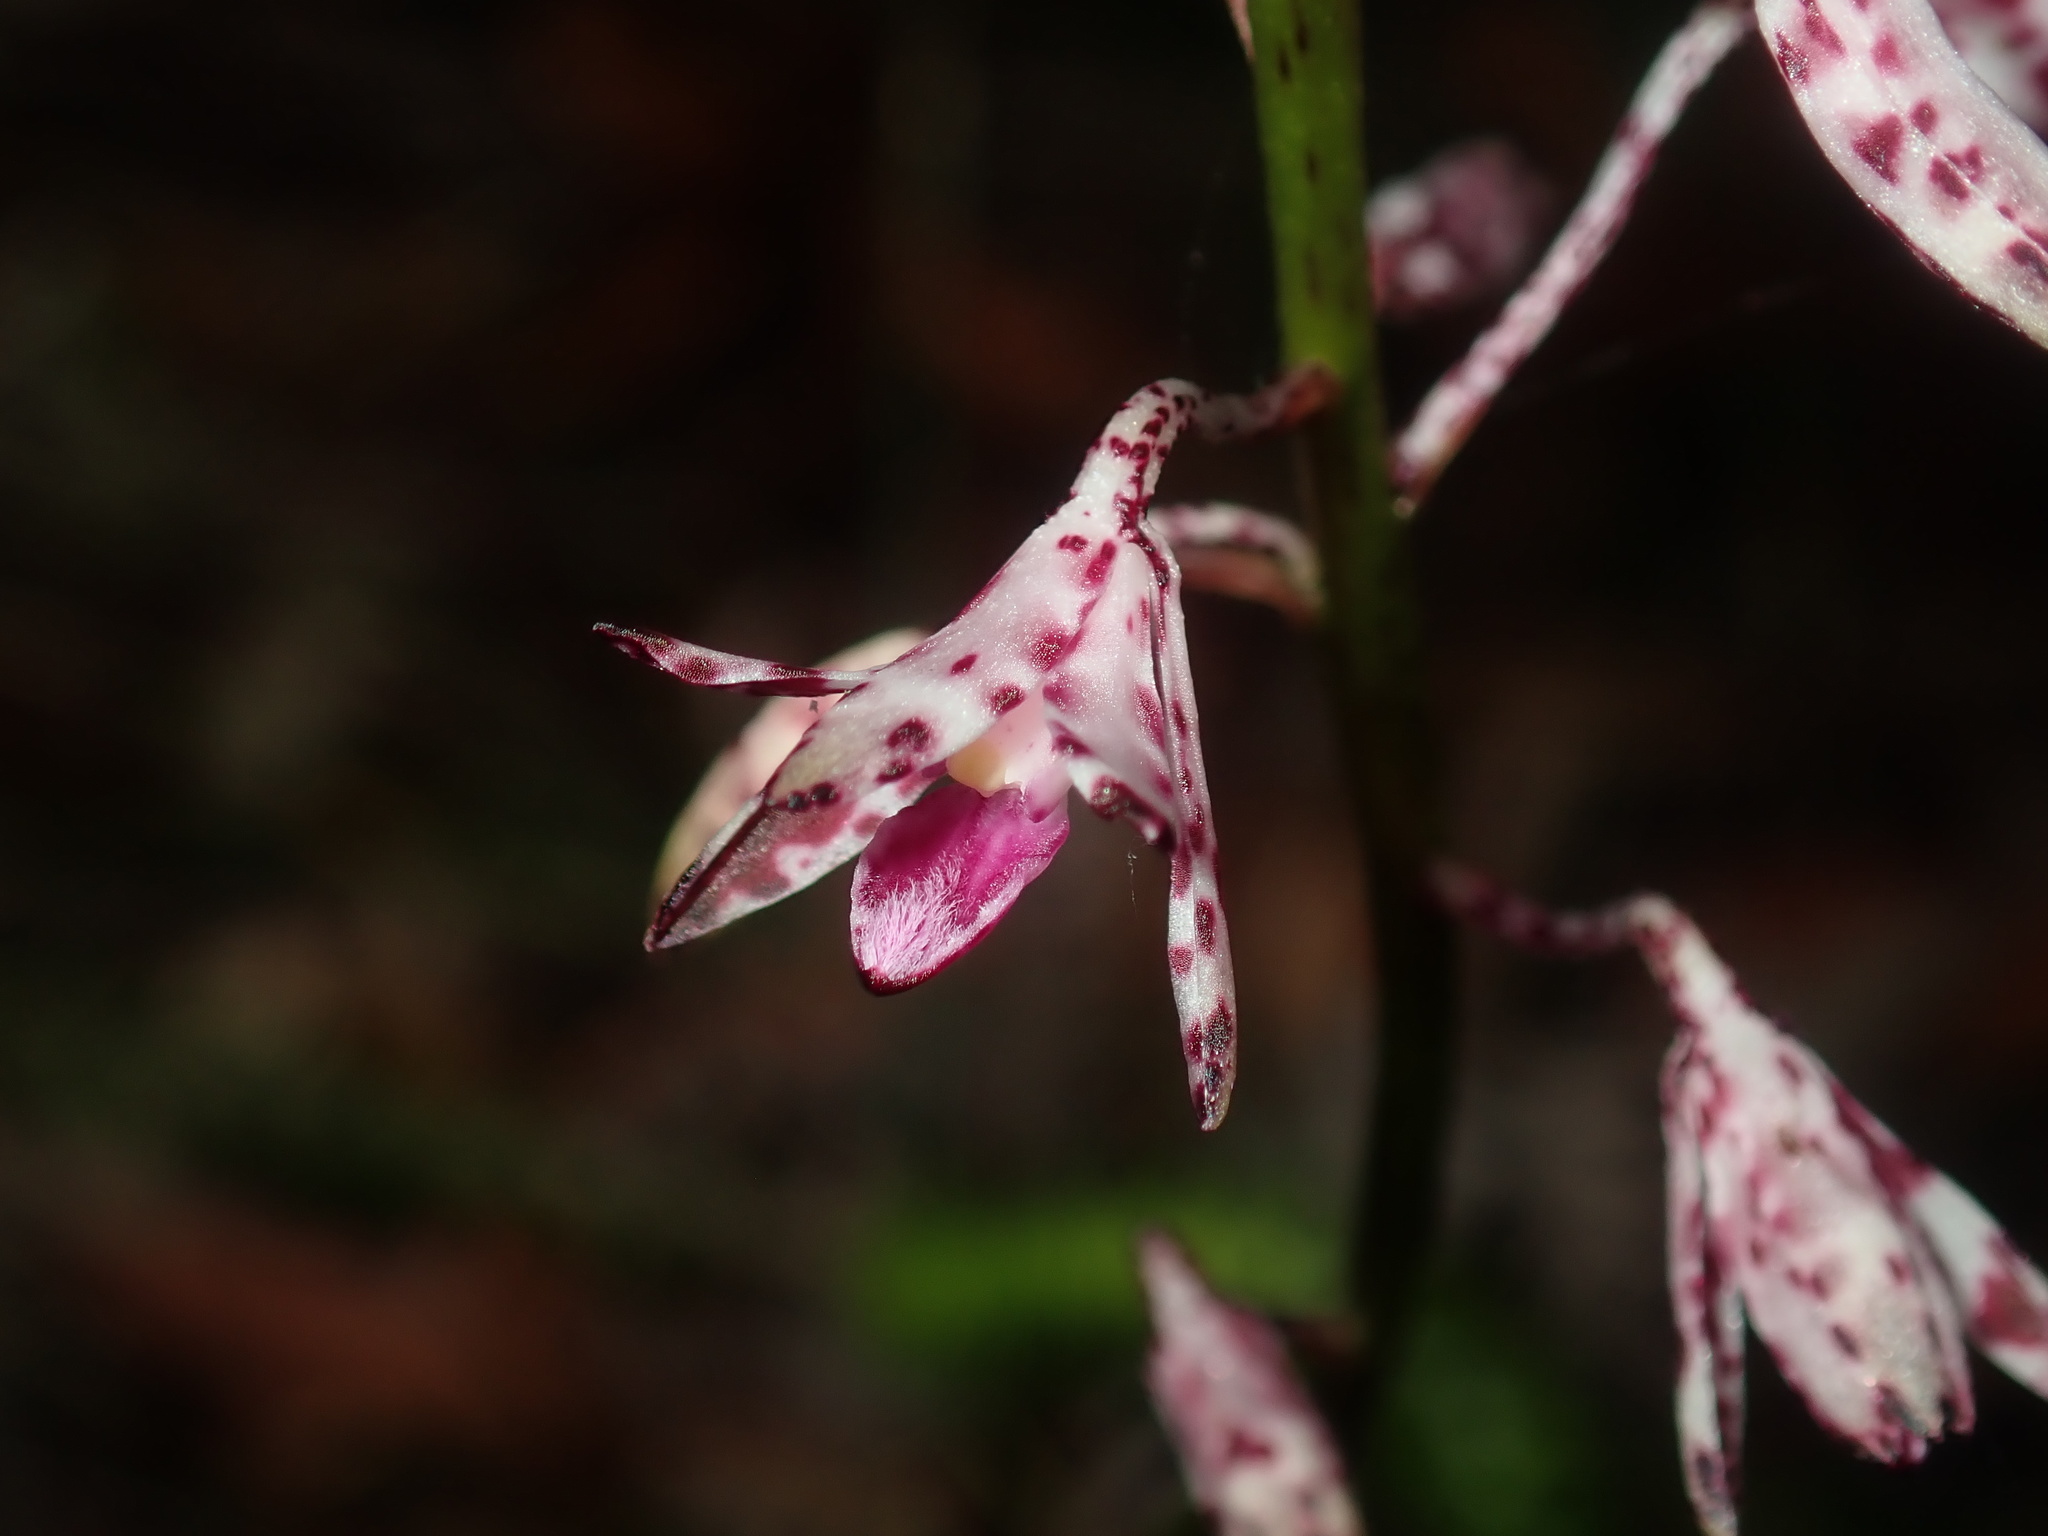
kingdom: Plantae
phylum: Tracheophyta
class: Liliopsida
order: Asparagales
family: Orchidaceae
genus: Dipodium
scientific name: Dipodium variegatum
